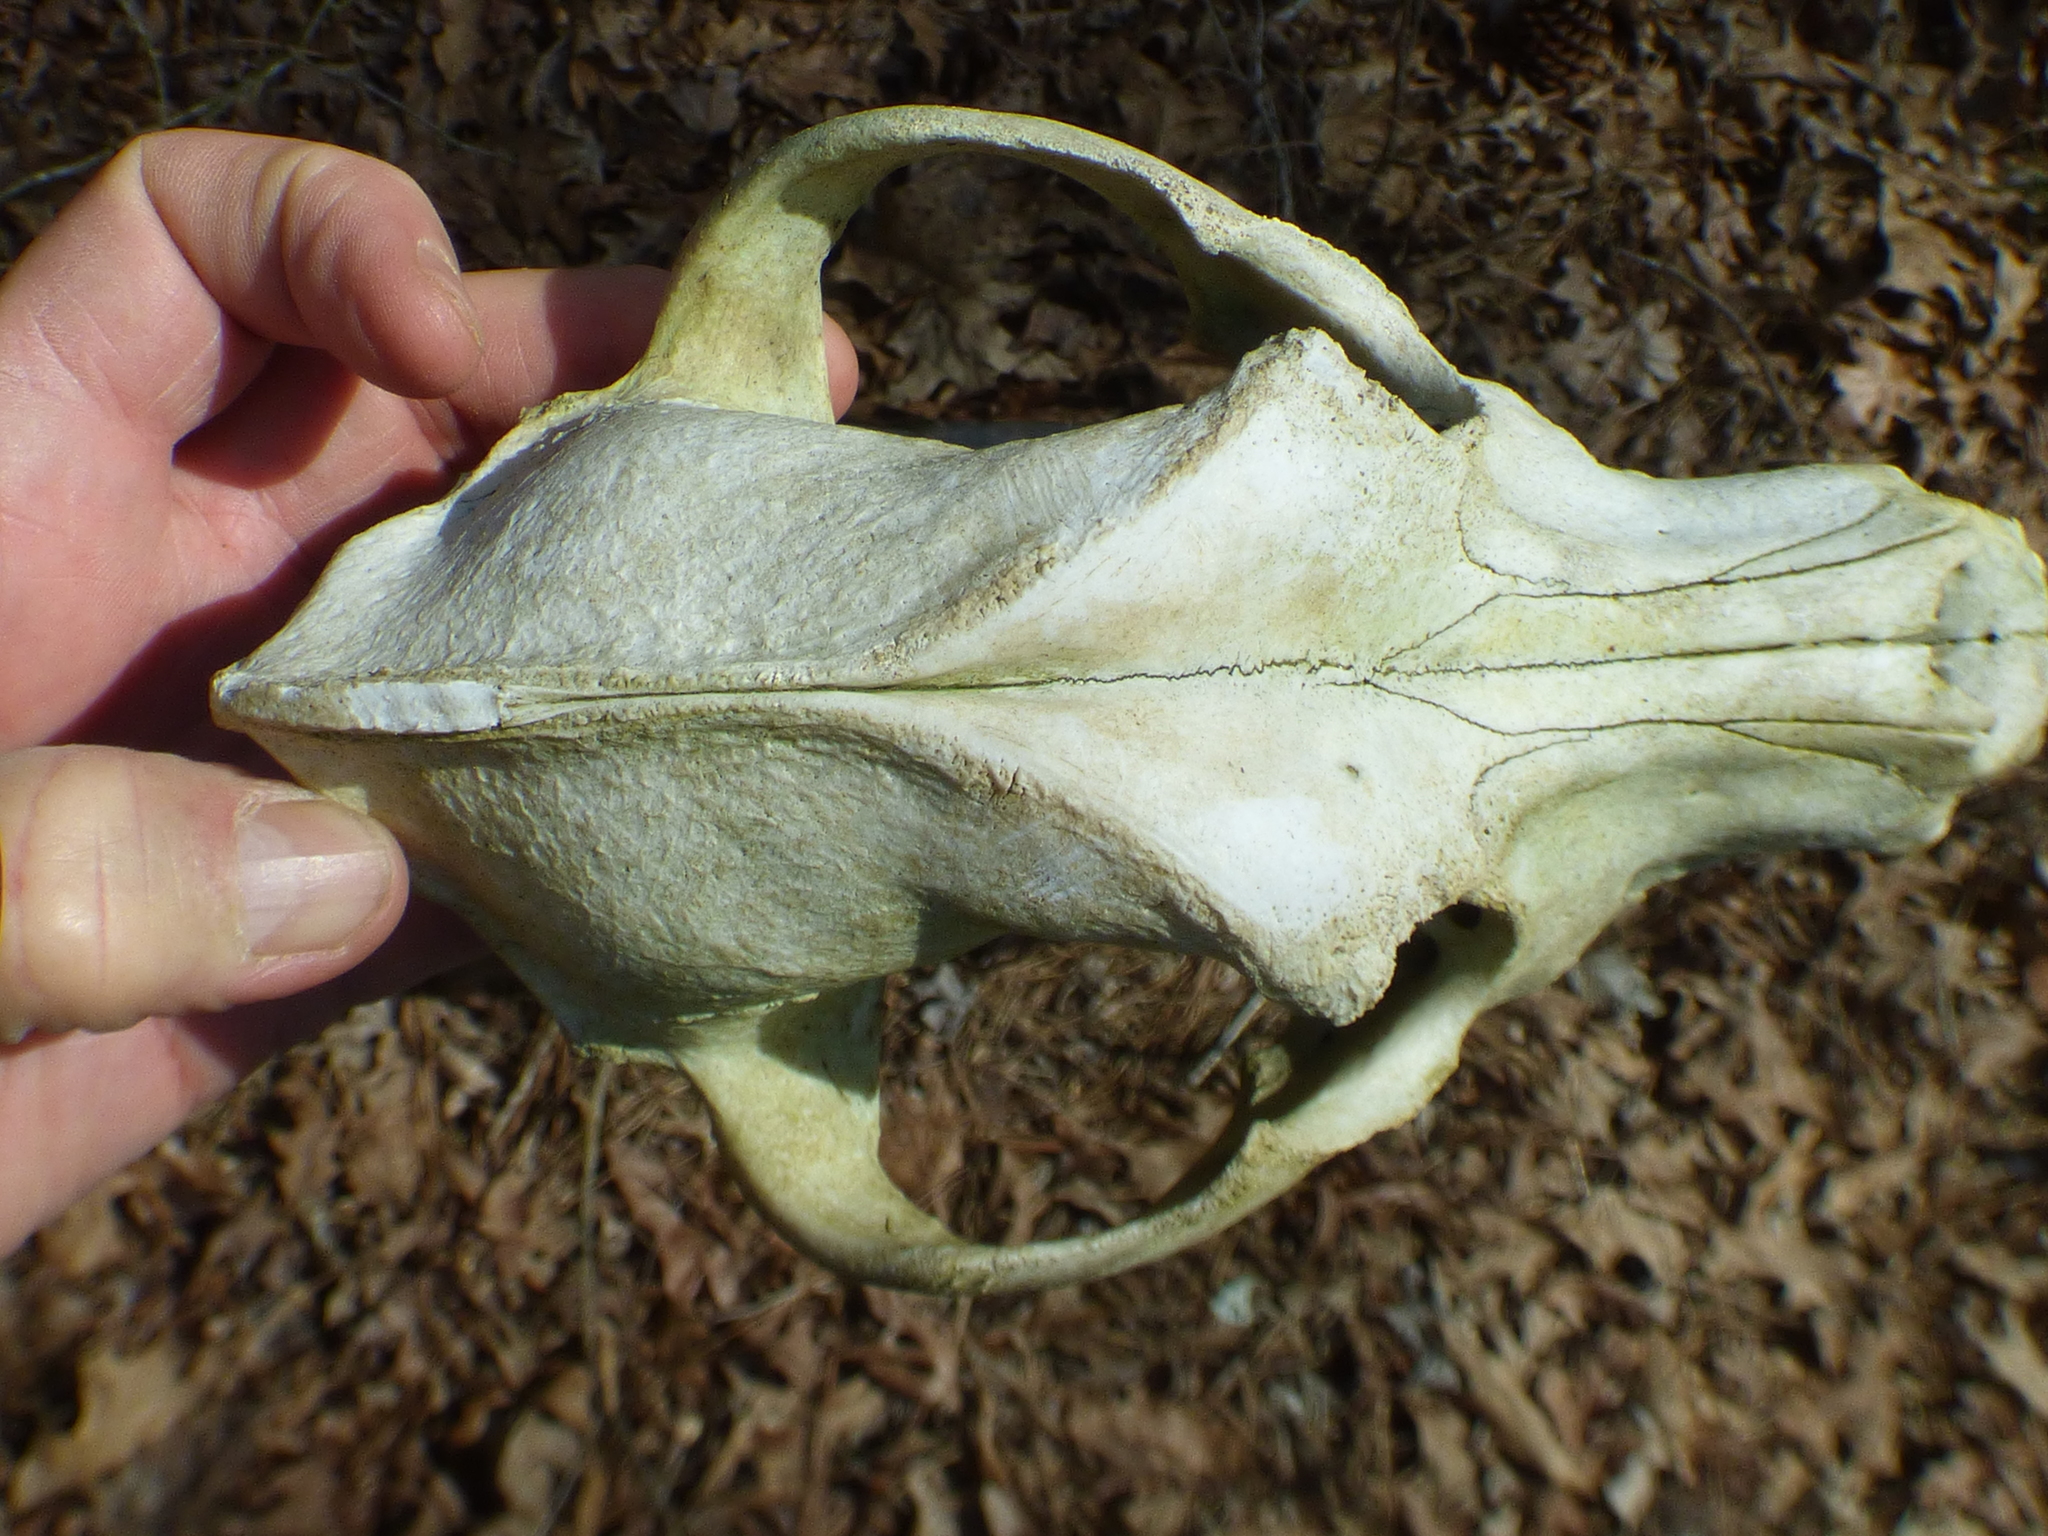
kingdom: Animalia
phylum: Chordata
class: Mammalia
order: Carnivora
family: Canidae
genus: Canis
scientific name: Canis lupus
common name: Gray wolf
